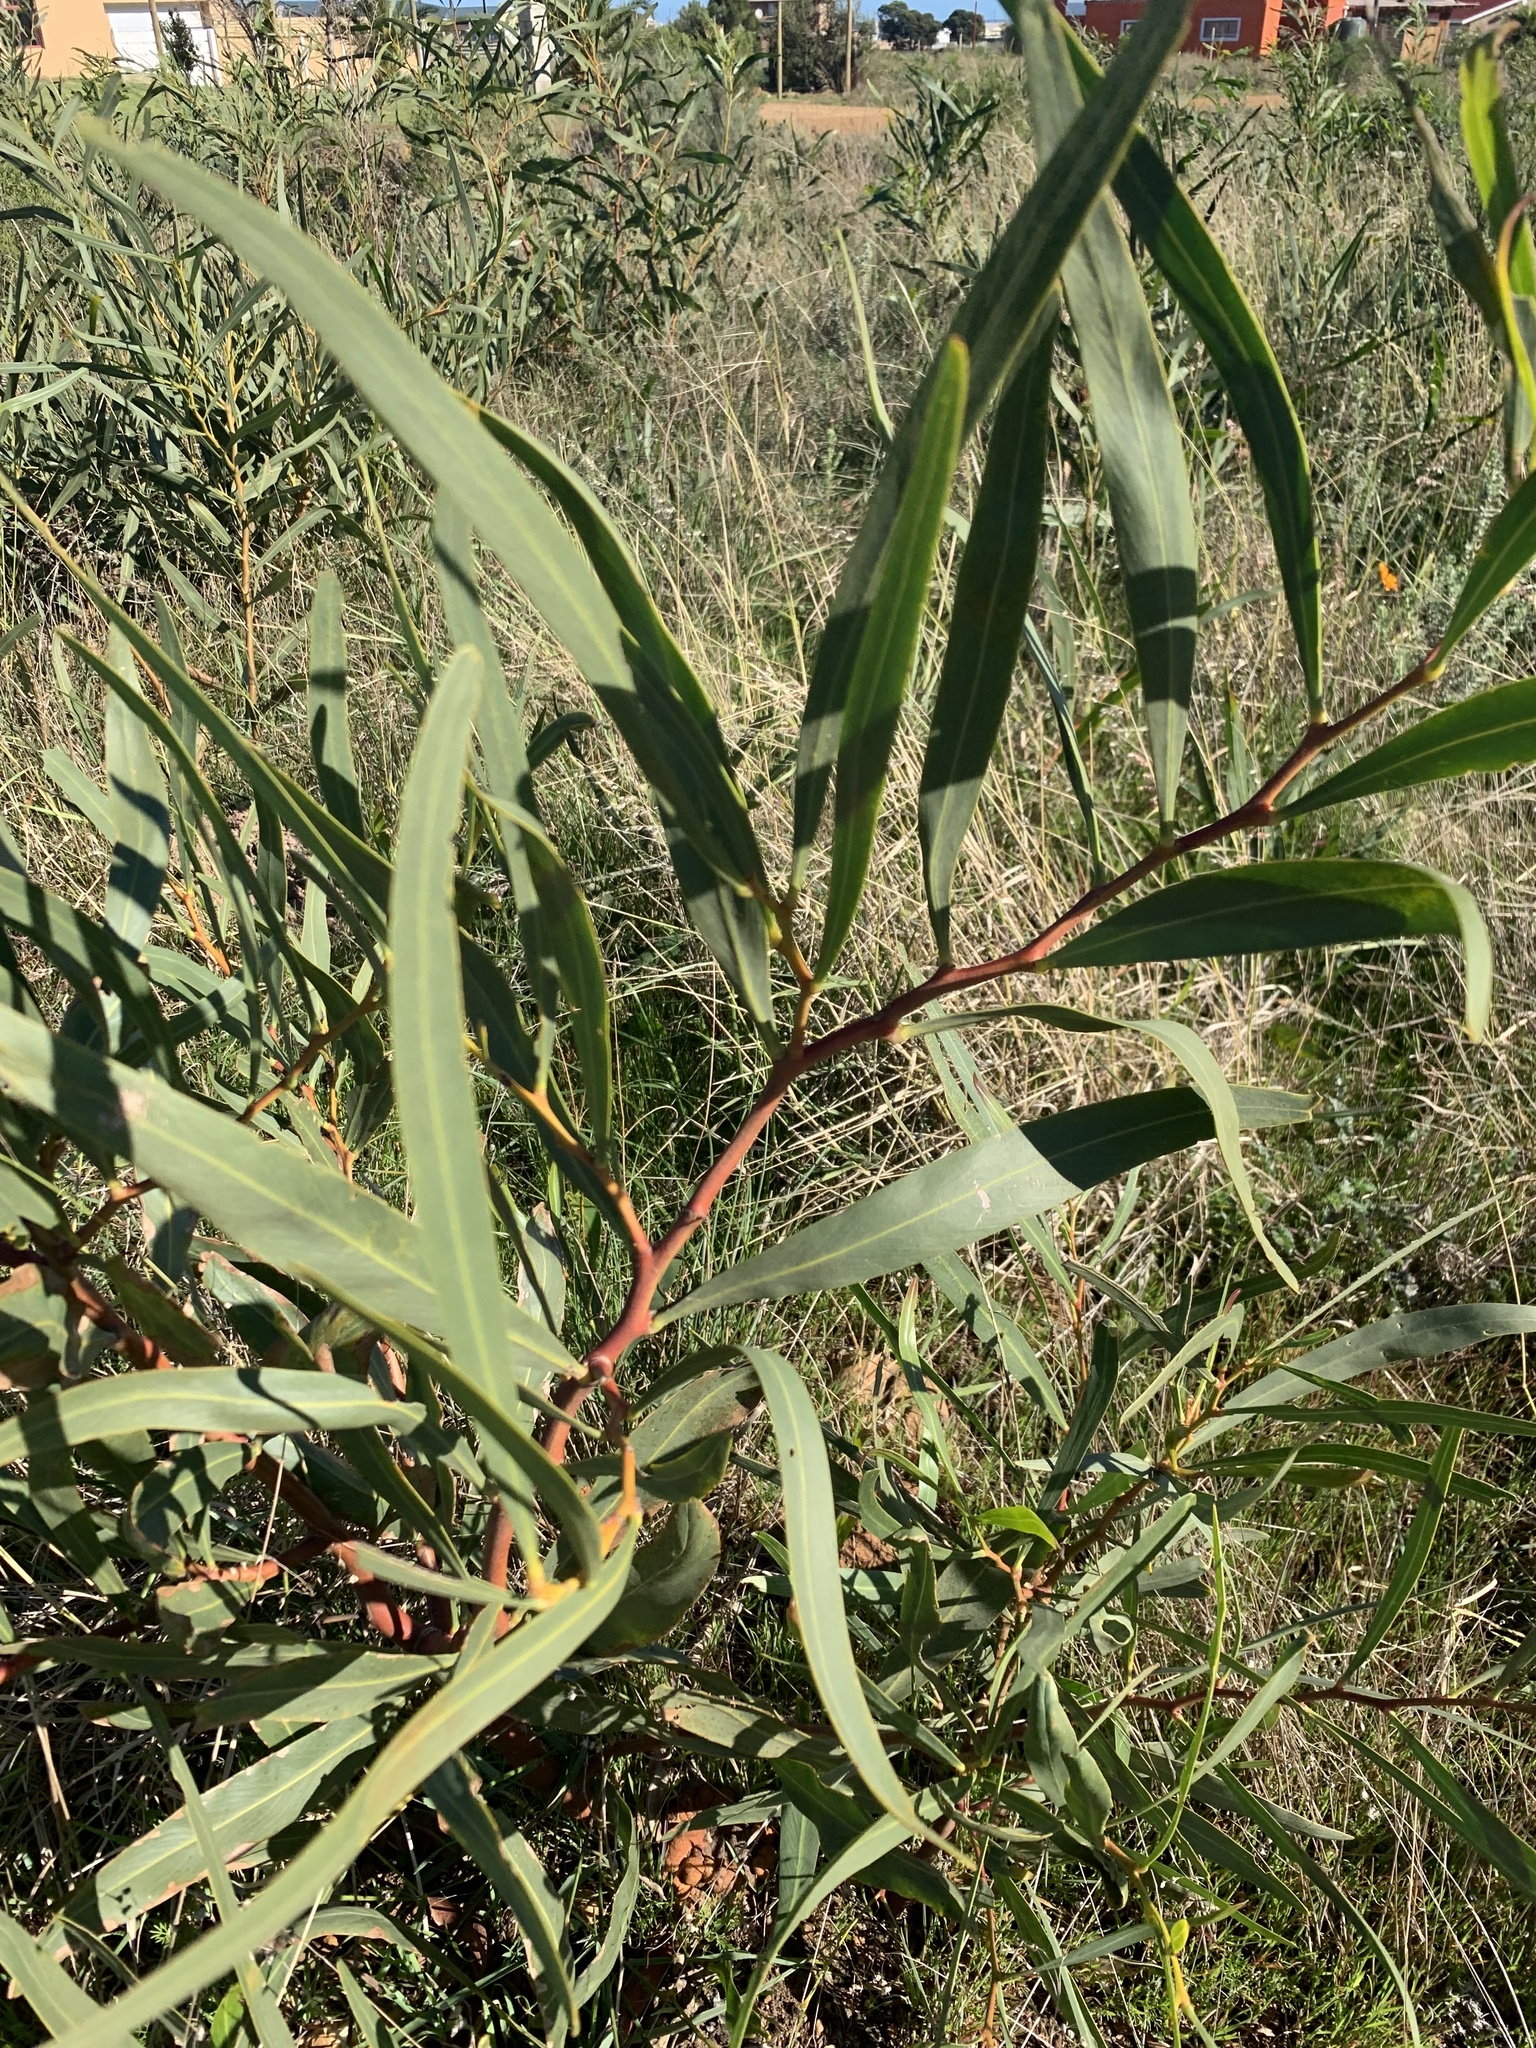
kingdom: Plantae
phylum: Tracheophyta
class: Magnoliopsida
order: Fabales
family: Fabaceae
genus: Acacia
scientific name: Acacia saligna
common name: Orange wattle
